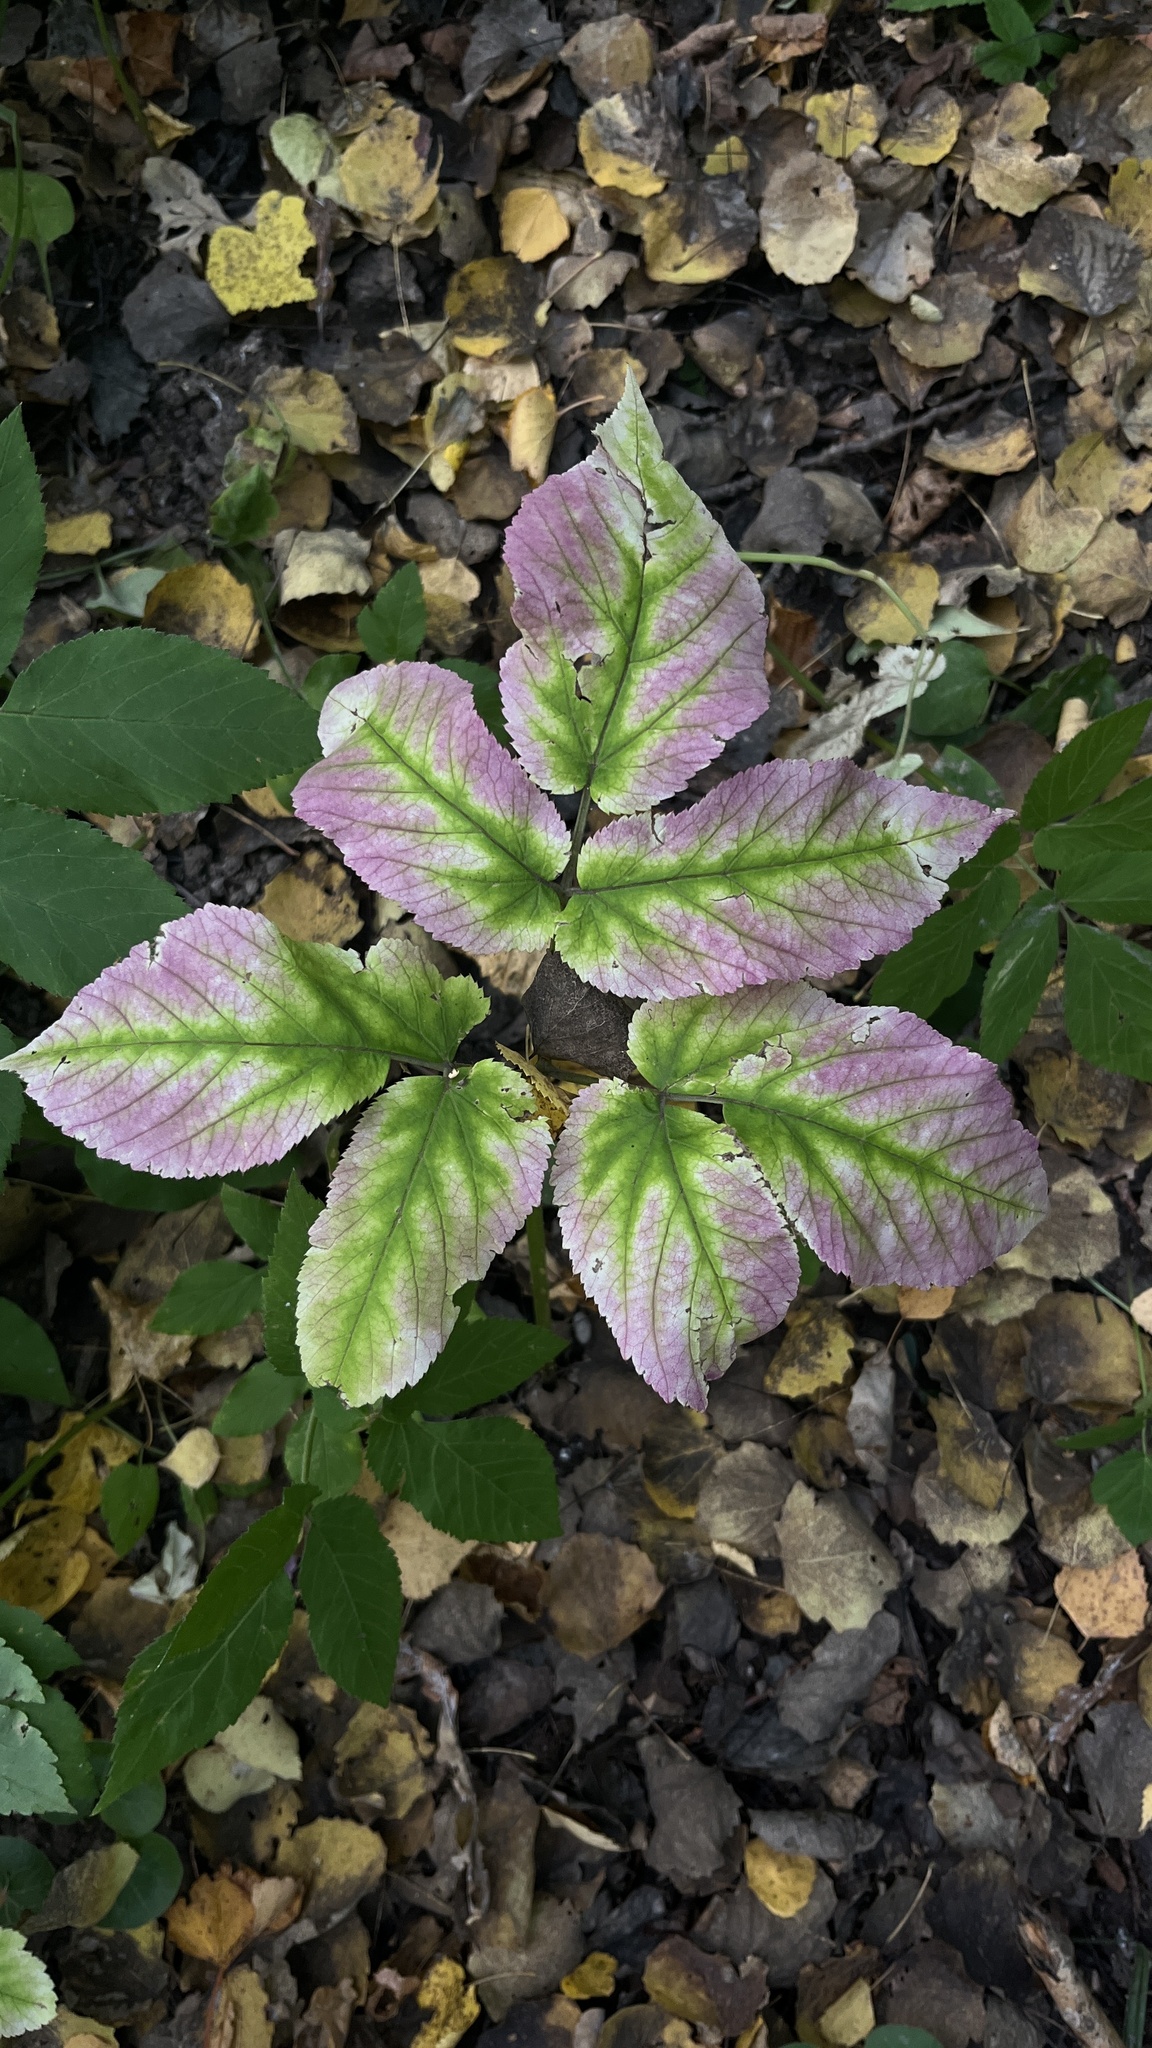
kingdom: Plantae
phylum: Tracheophyta
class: Magnoliopsida
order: Apiales
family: Apiaceae
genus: Aegopodium
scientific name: Aegopodium podagraria
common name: Ground-elder
